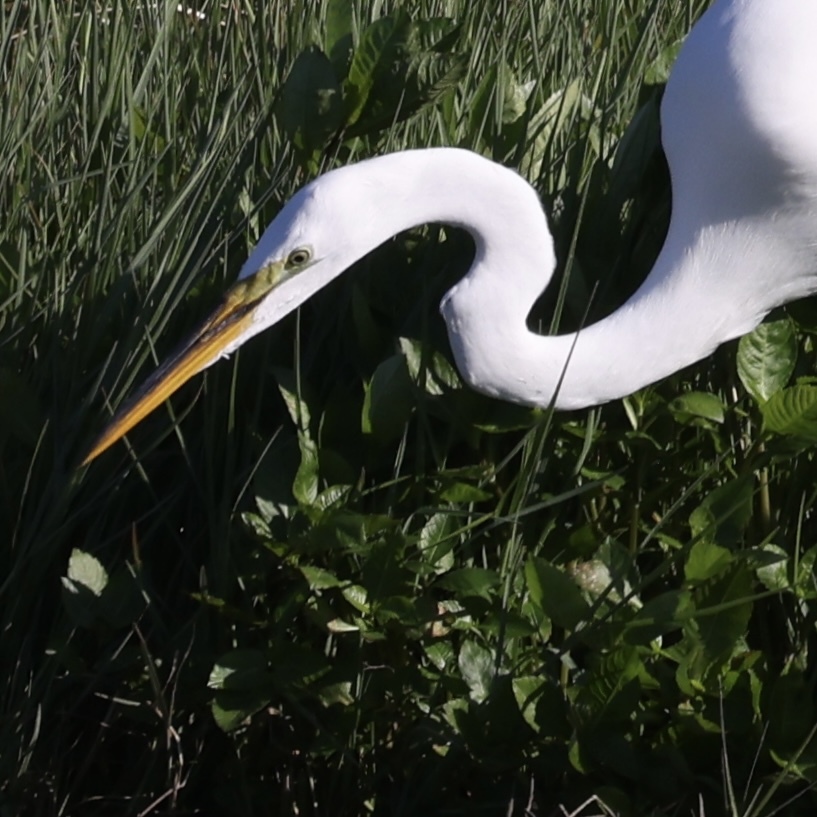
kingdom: Animalia
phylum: Chordata
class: Aves
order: Pelecaniformes
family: Ardeidae
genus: Ardea
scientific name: Ardea alba
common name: Great egret
